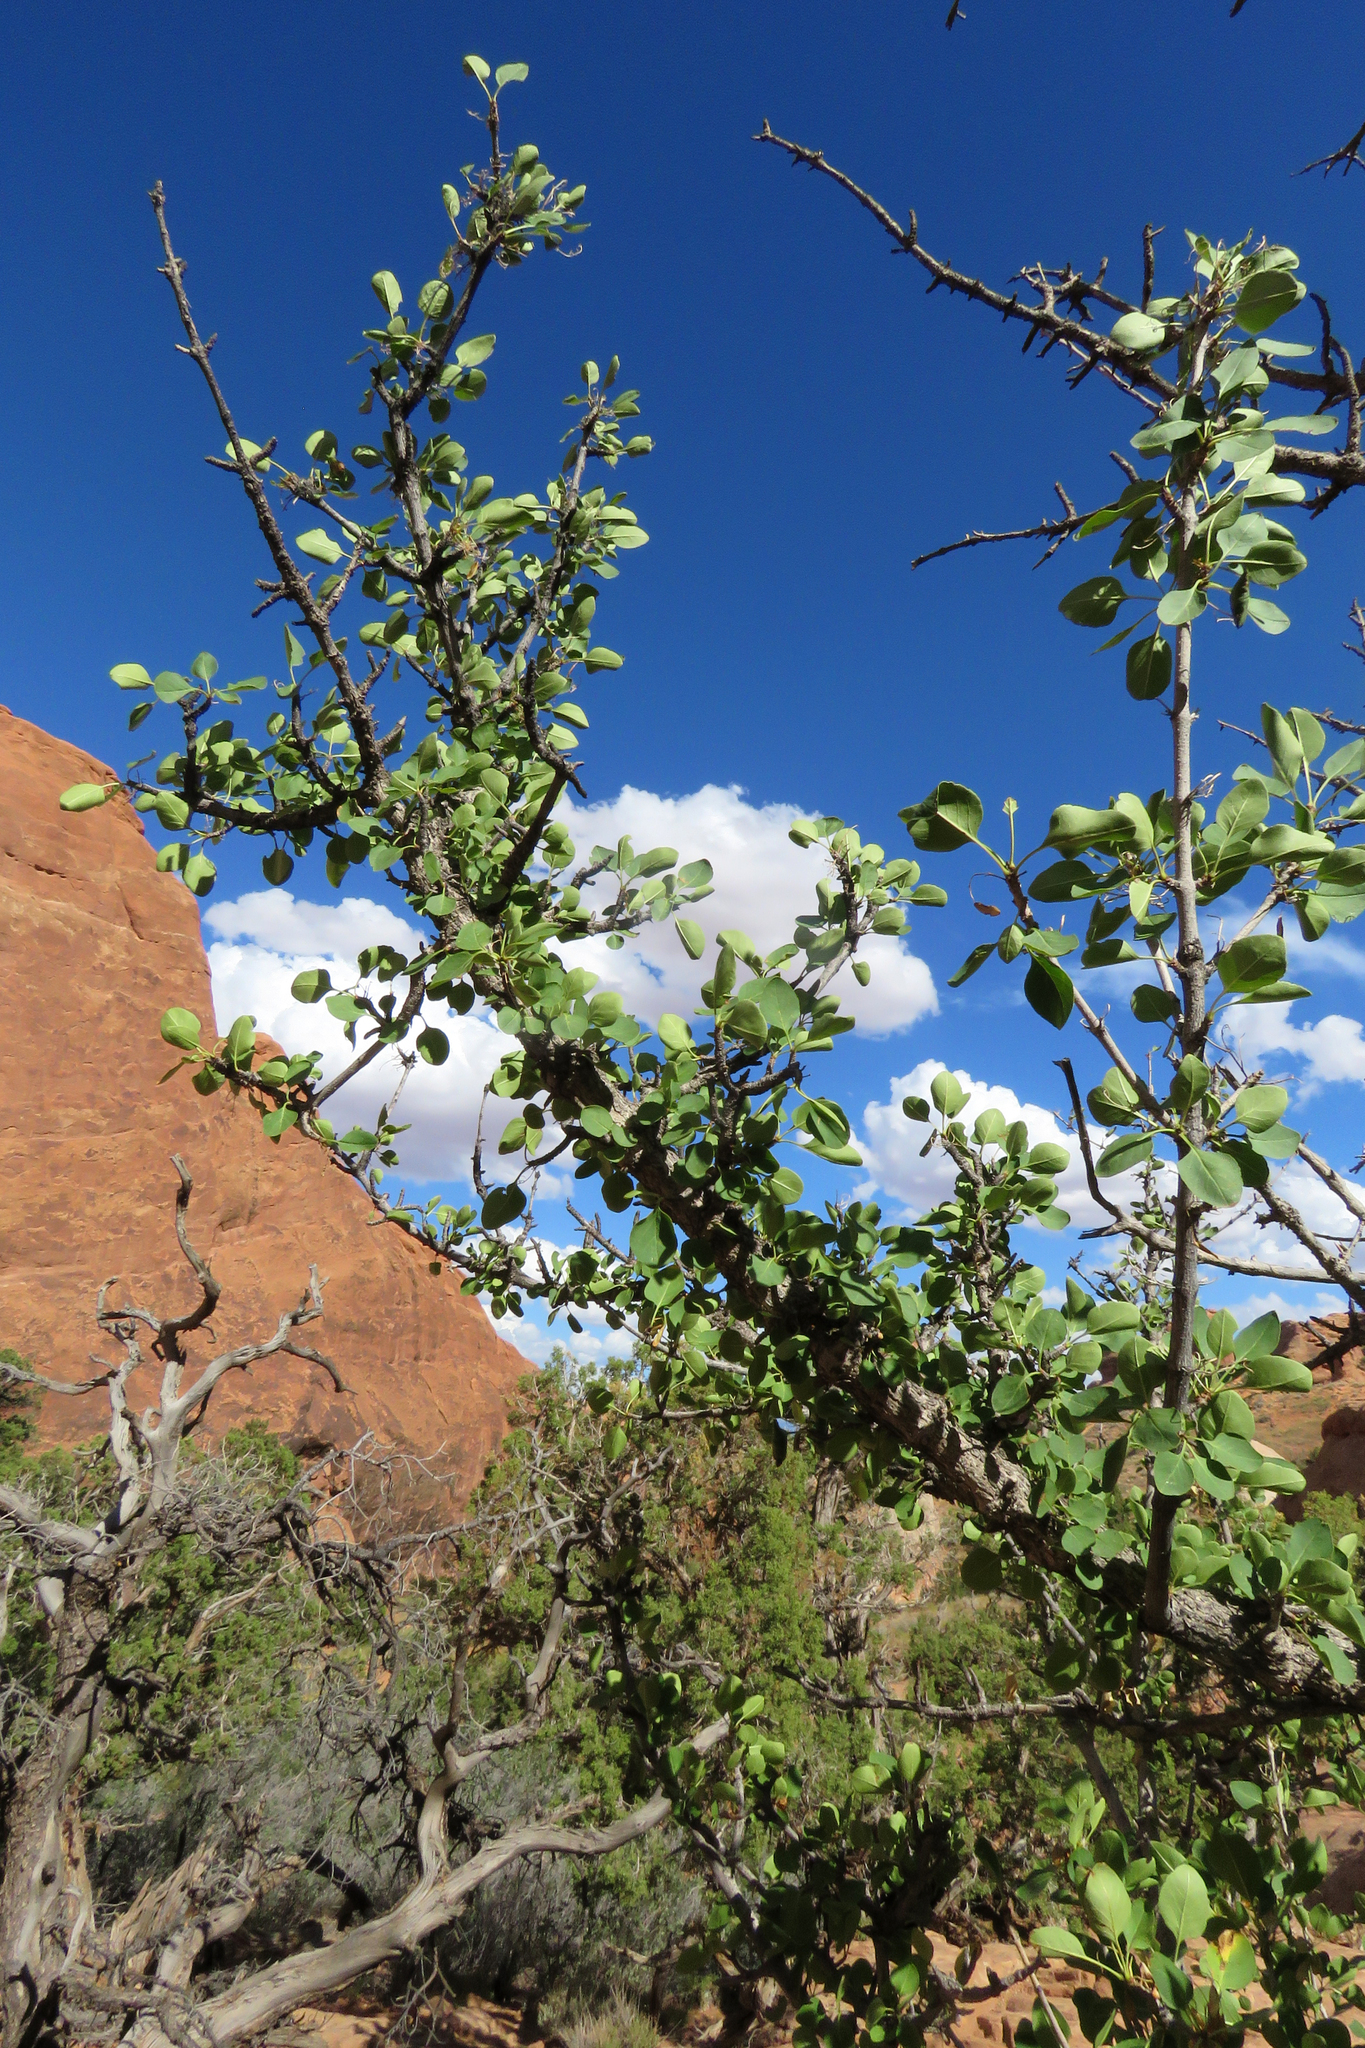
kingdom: Plantae
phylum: Tracheophyta
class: Magnoliopsida
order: Lamiales
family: Oleaceae
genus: Fraxinus
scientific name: Fraxinus anomala
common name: Utah ash
